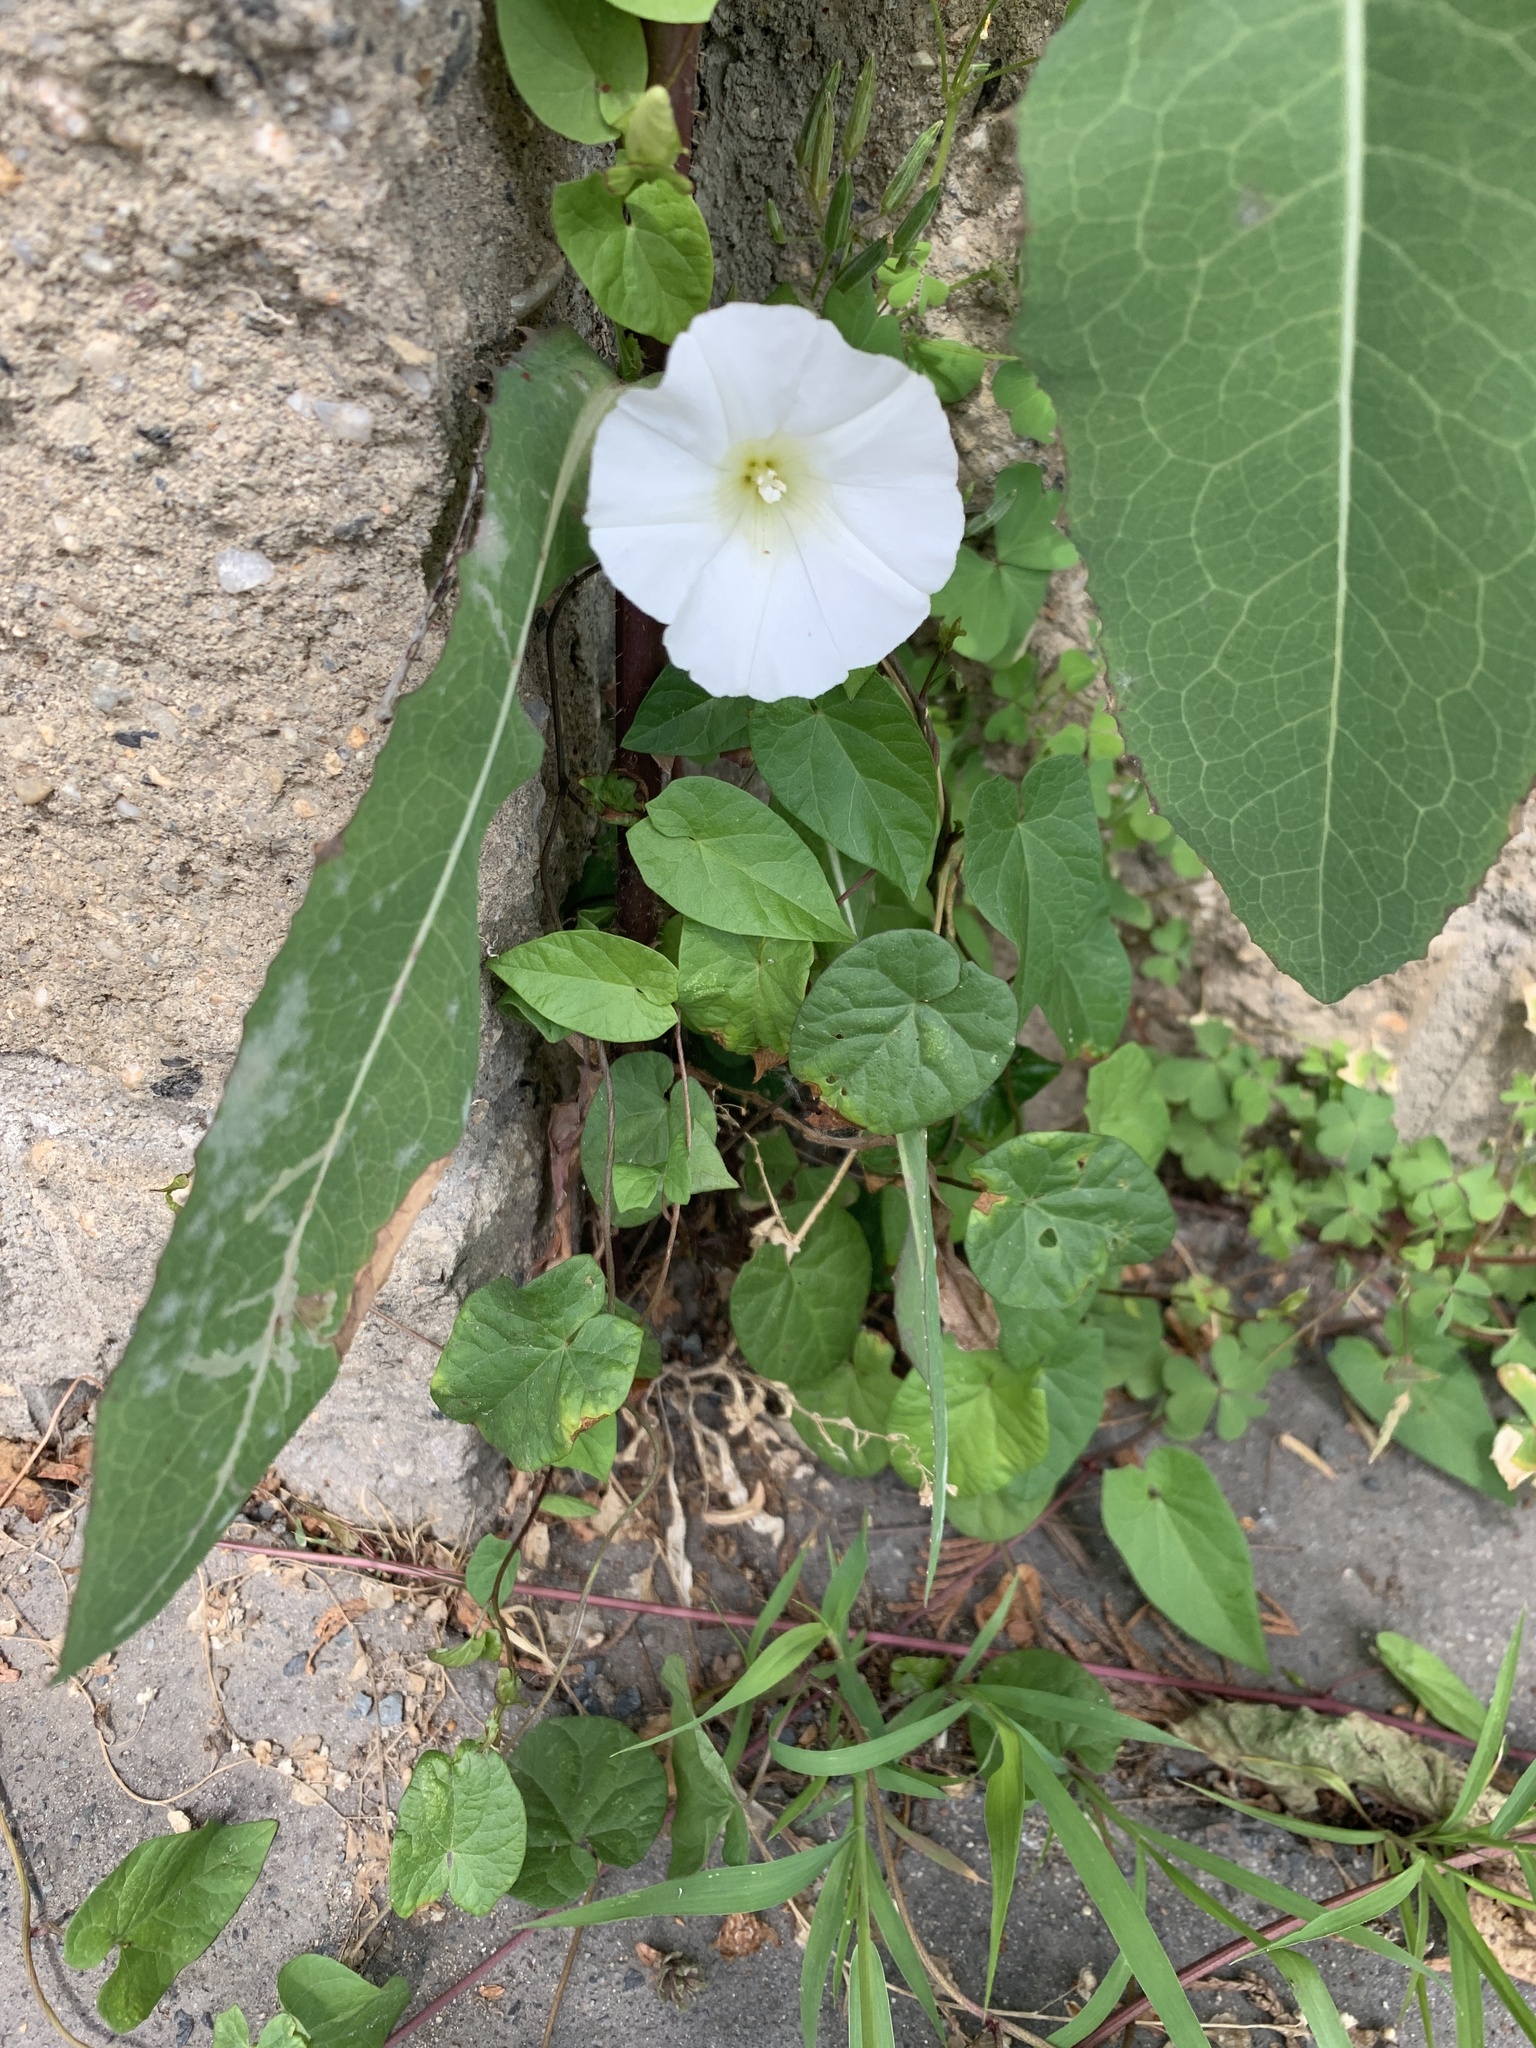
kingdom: Plantae
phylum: Tracheophyta
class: Magnoliopsida
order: Solanales
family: Convolvulaceae
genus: Calystegia
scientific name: Calystegia sepium
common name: Hedge bindweed
